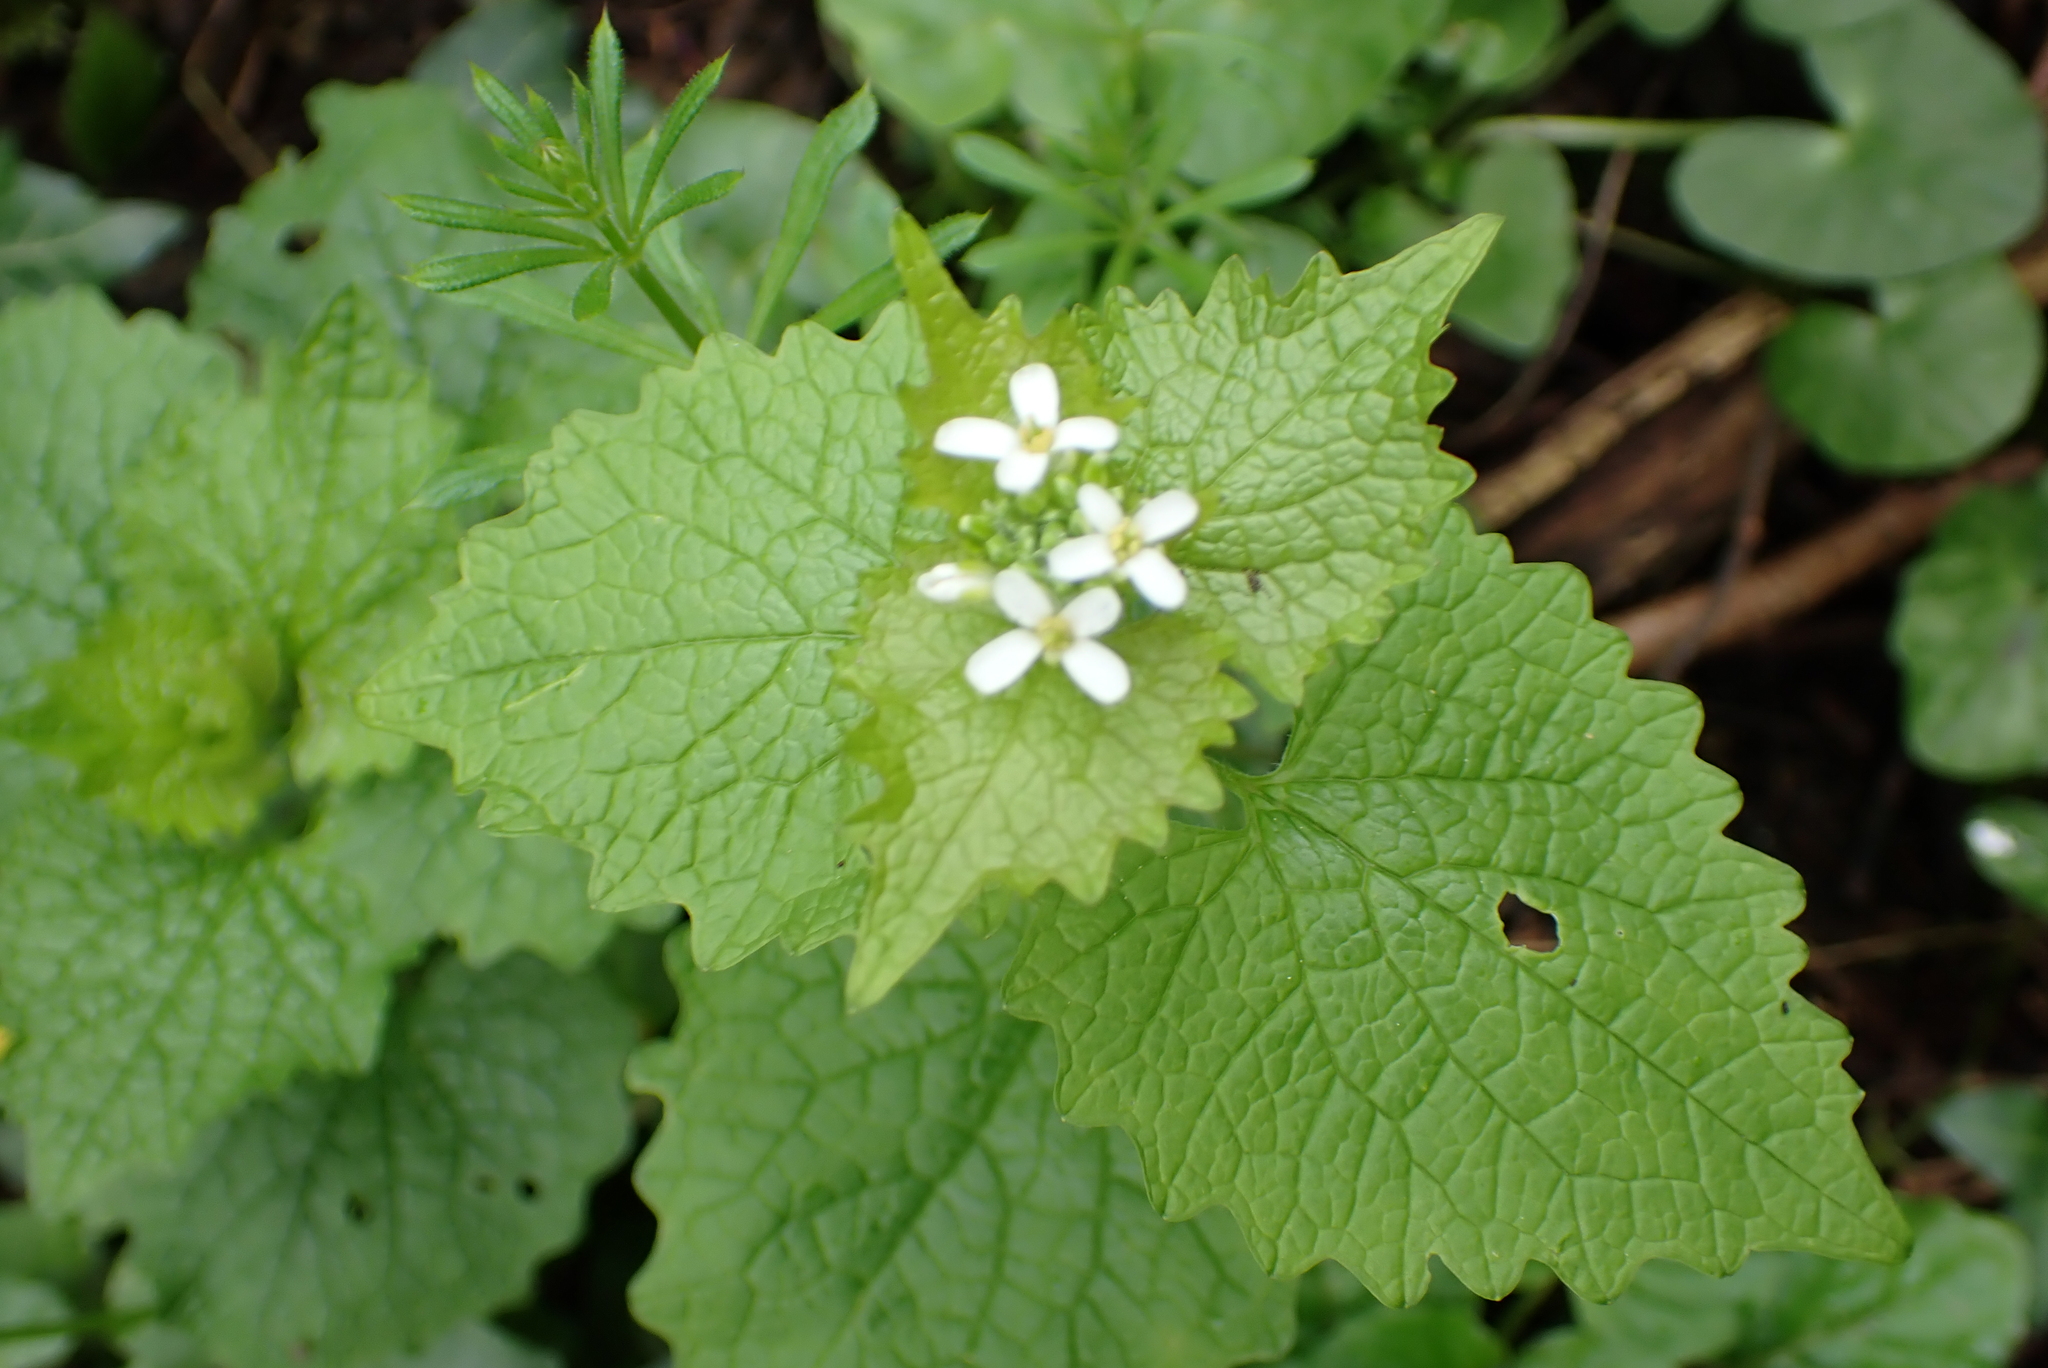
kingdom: Plantae
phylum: Tracheophyta
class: Magnoliopsida
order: Brassicales
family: Brassicaceae
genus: Alliaria
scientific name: Alliaria petiolata
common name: Garlic mustard
